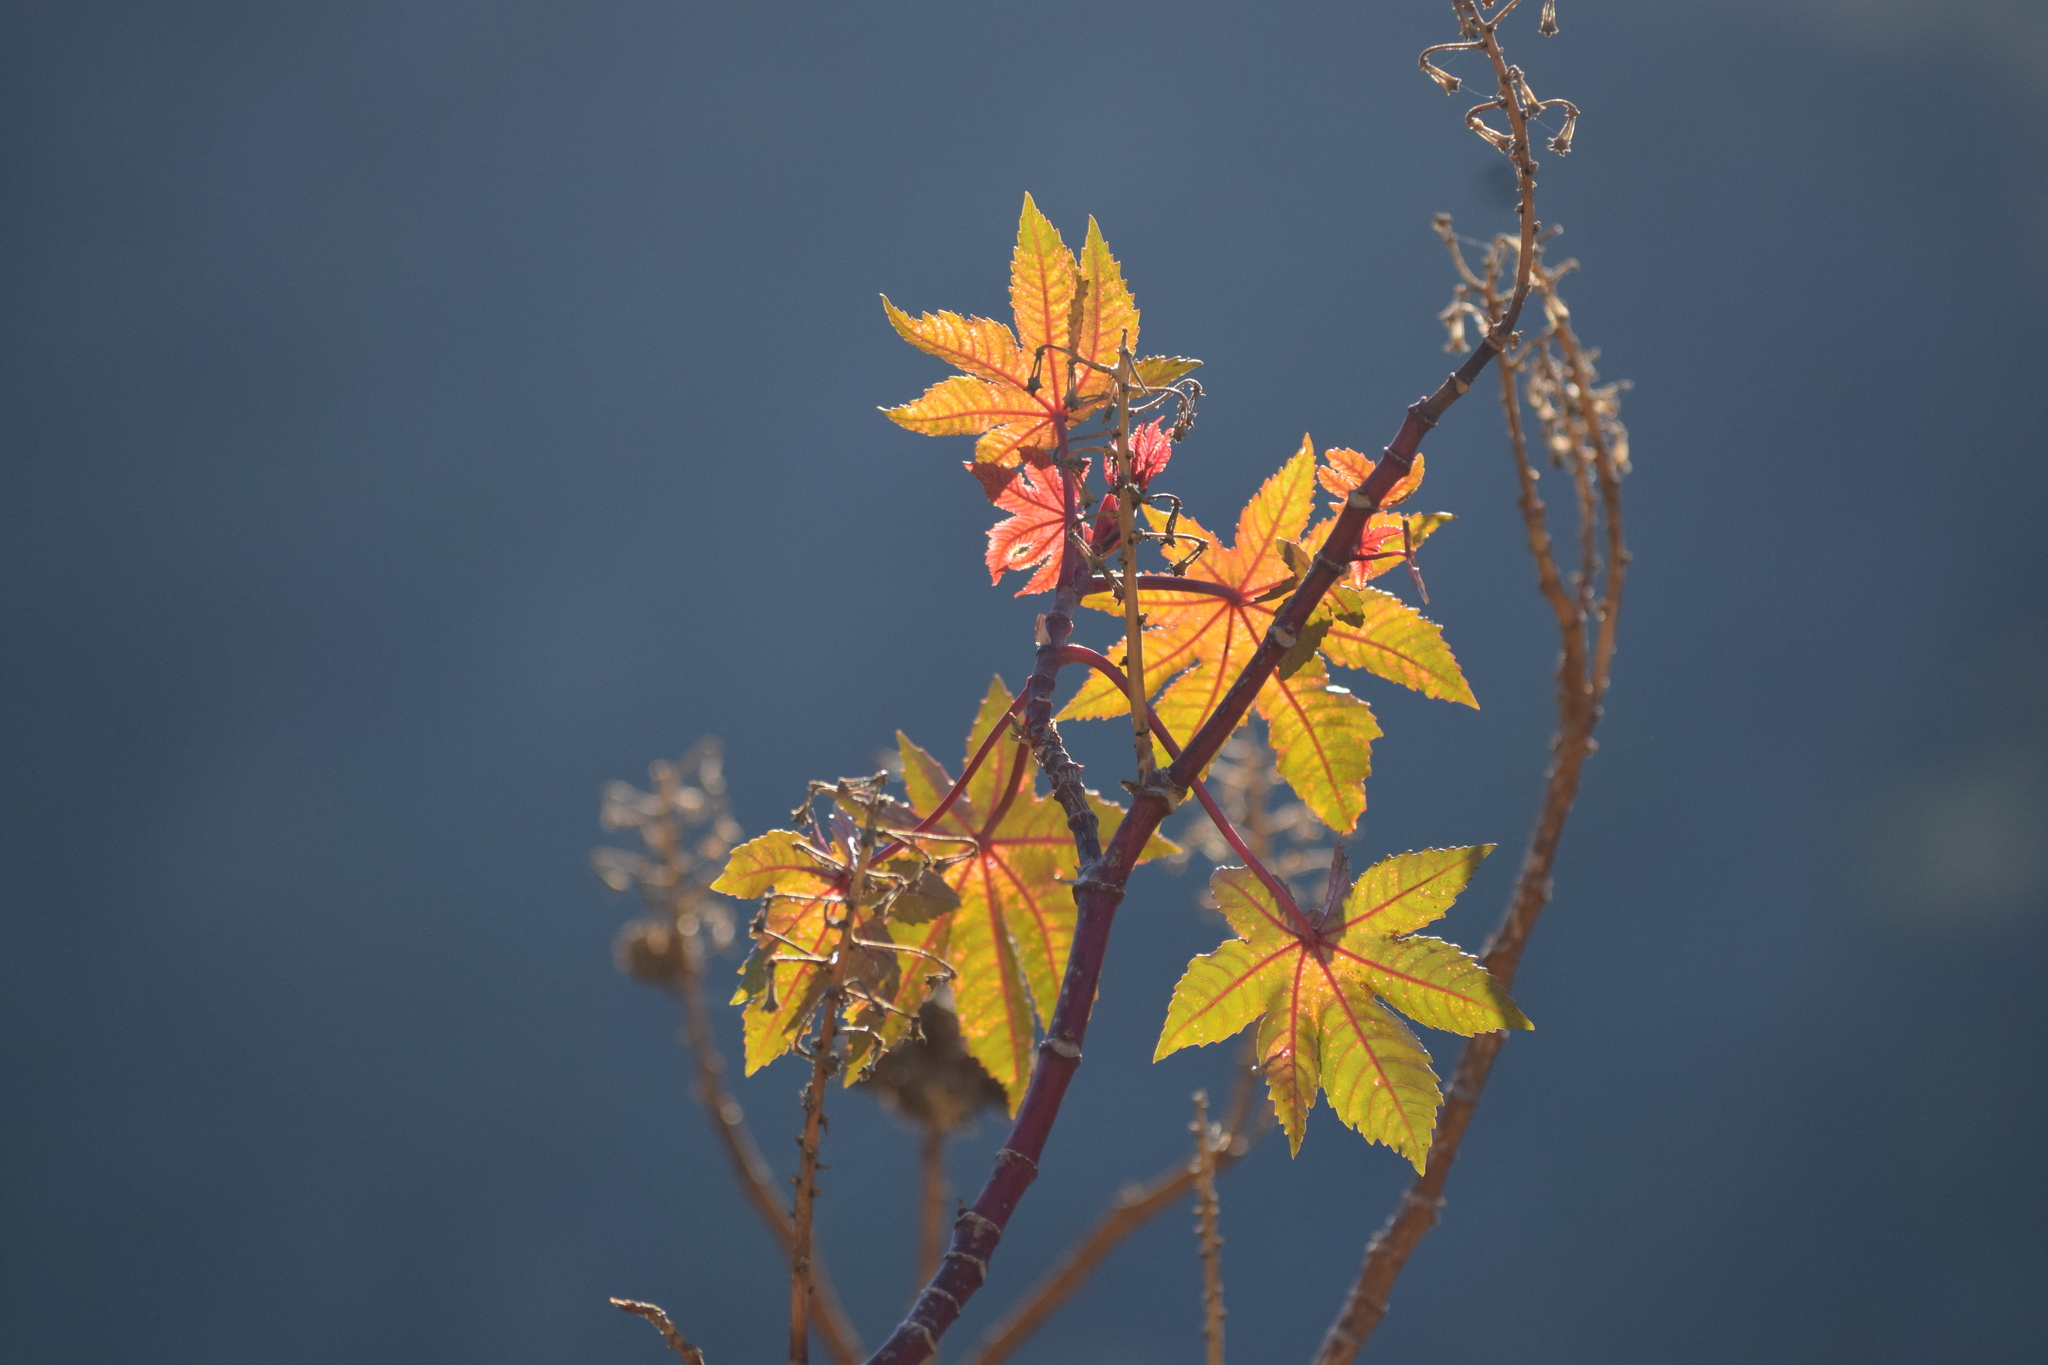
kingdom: Plantae
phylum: Tracheophyta
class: Magnoliopsida
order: Malpighiales
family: Euphorbiaceae
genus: Ricinus
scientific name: Ricinus communis
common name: Castor-oil-plant
